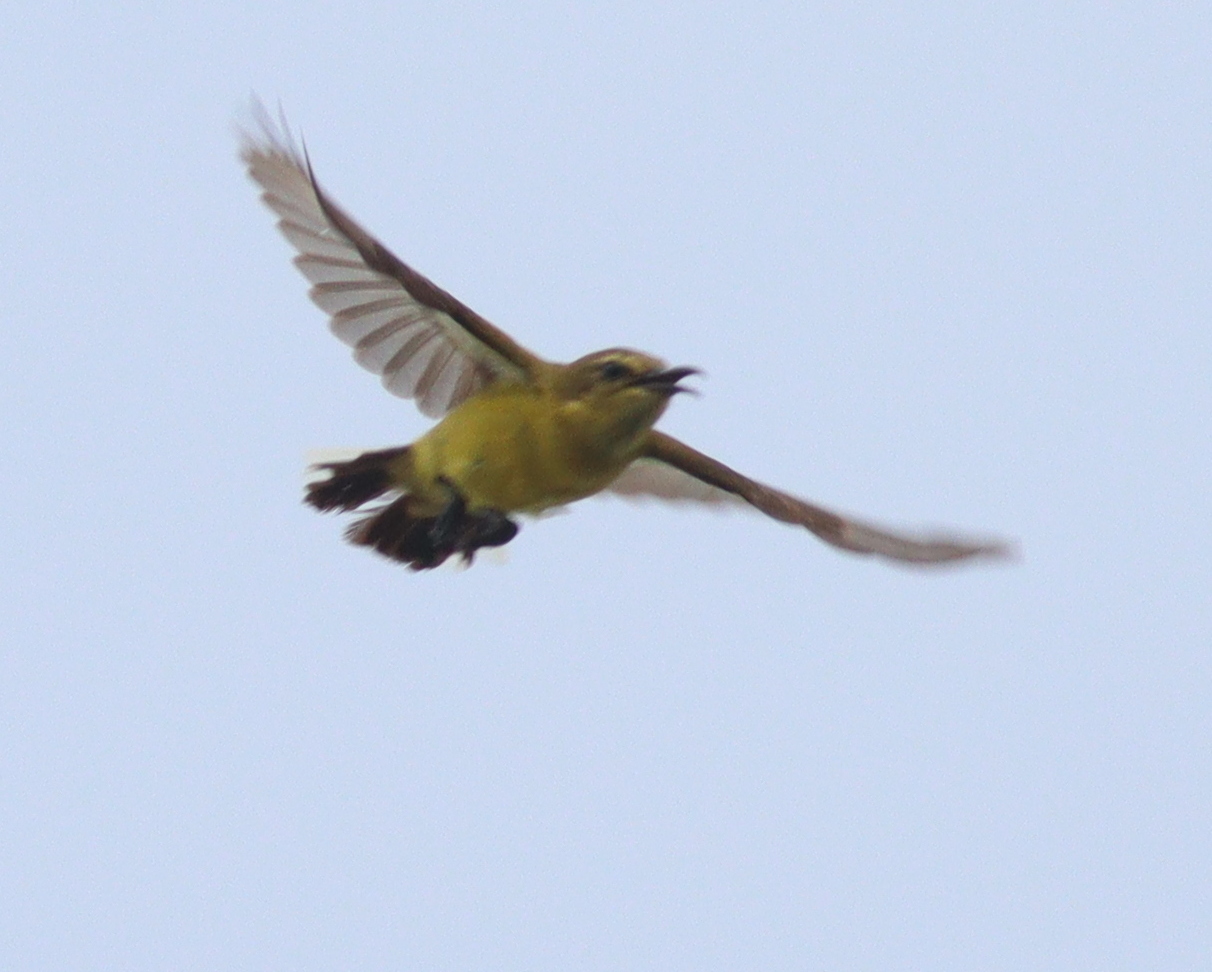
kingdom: Animalia
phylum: Chordata
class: Aves
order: Passeriformes
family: Nectariniidae
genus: Cinnyris
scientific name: Cinnyris
